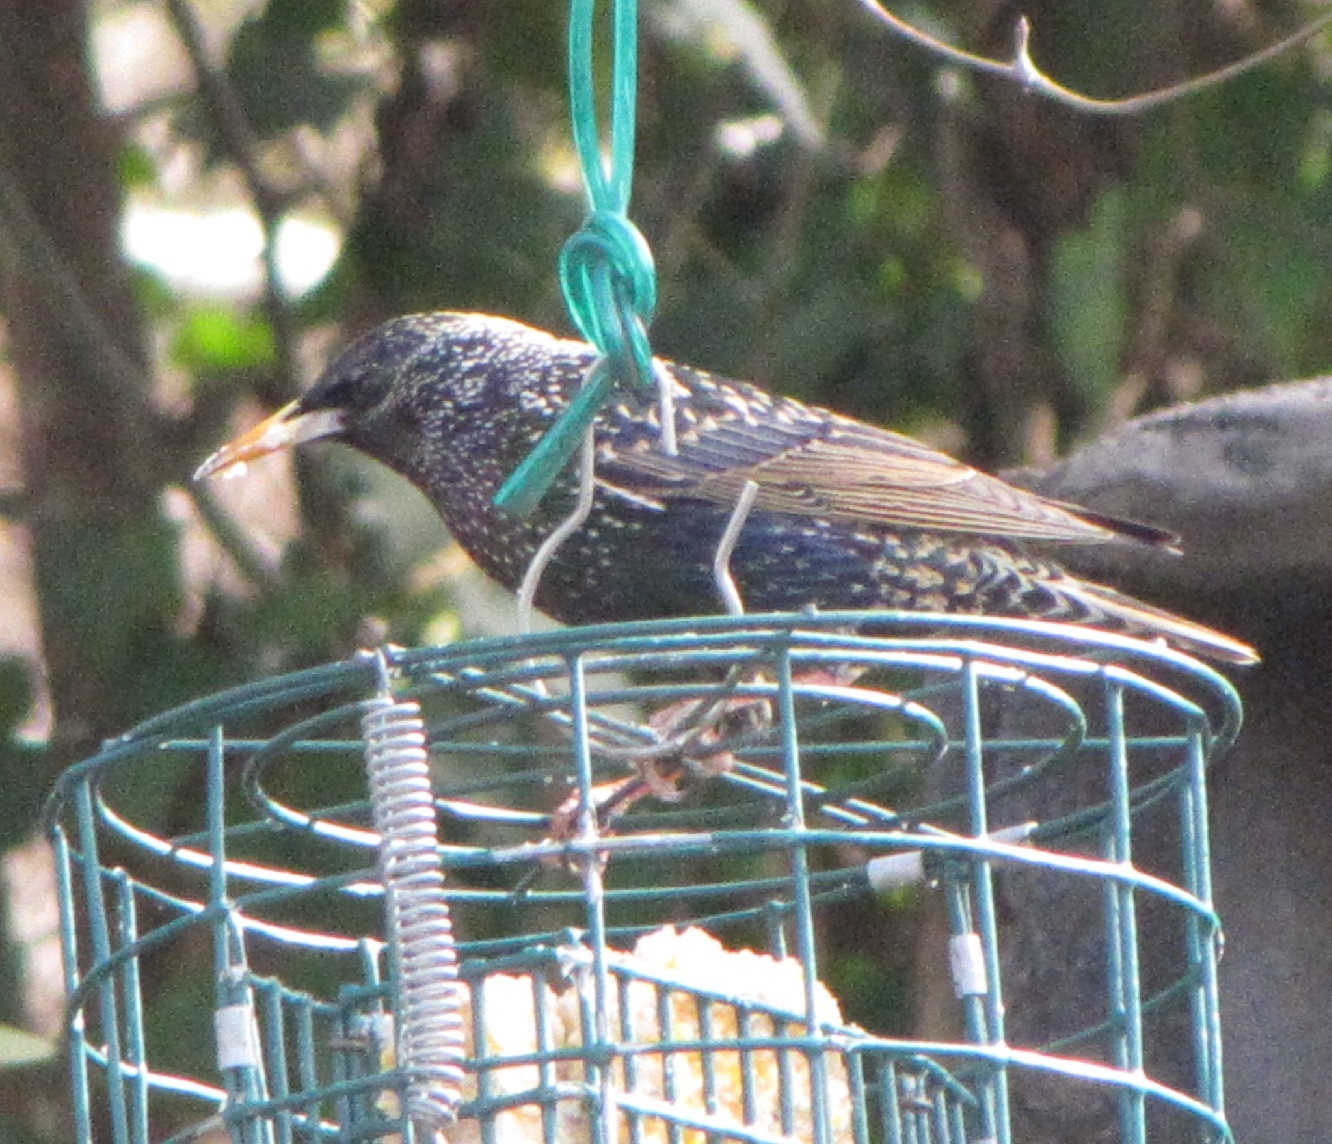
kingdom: Animalia
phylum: Chordata
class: Aves
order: Passeriformes
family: Sturnidae
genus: Sturnus
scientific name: Sturnus vulgaris
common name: Common starling
